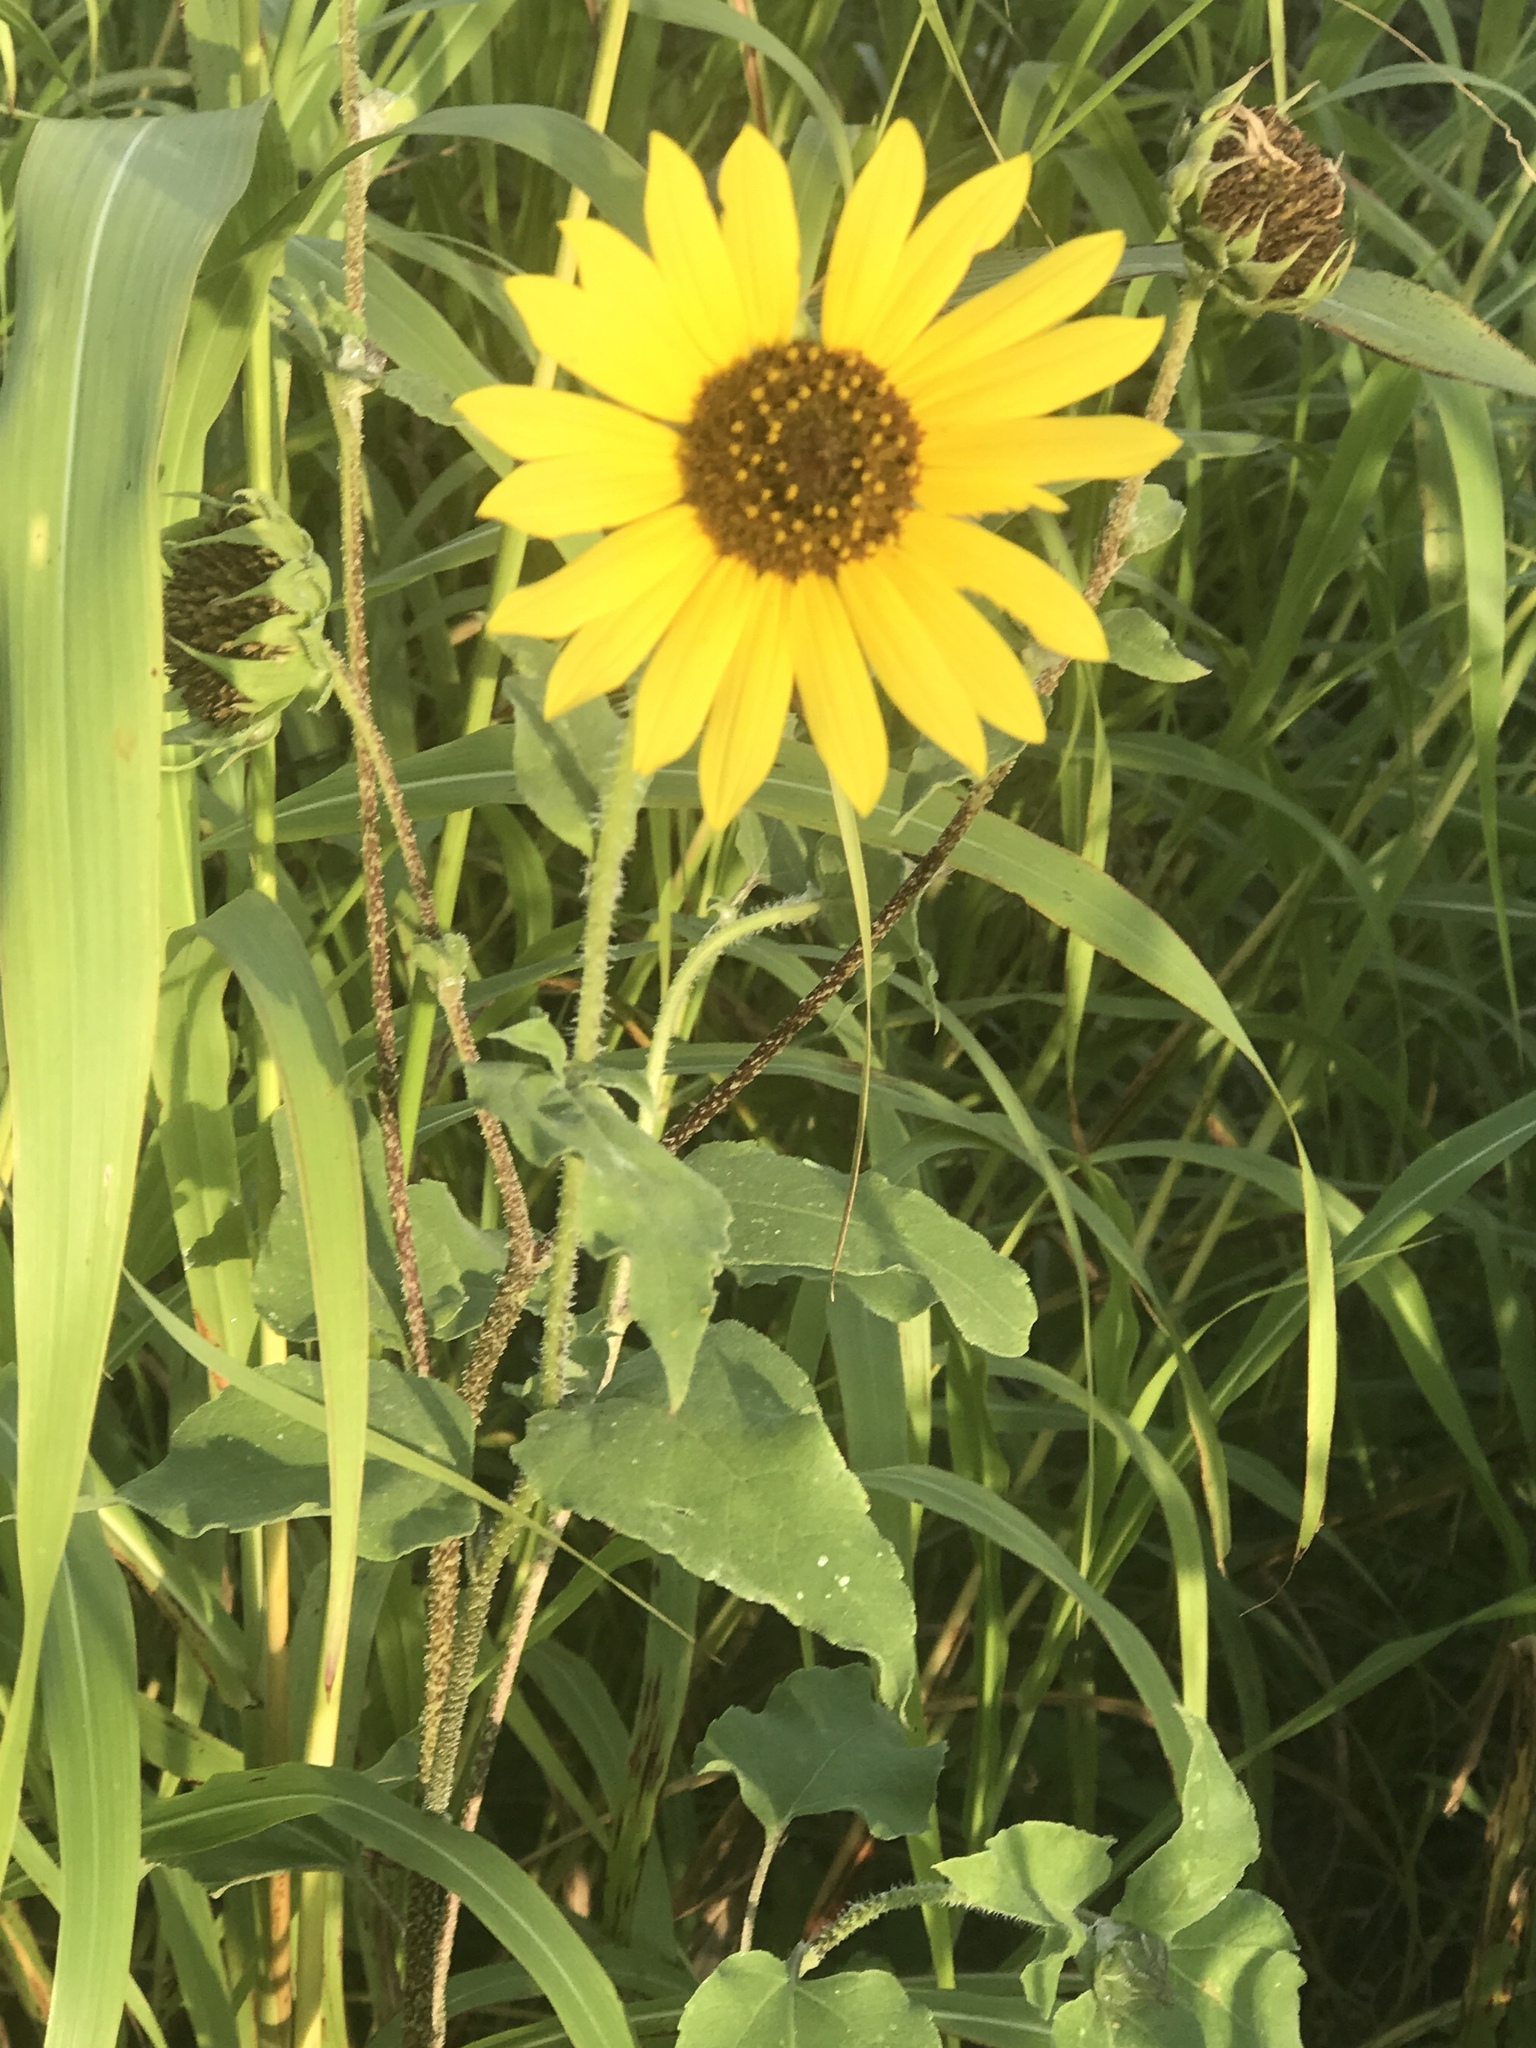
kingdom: Plantae
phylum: Tracheophyta
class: Magnoliopsida
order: Asterales
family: Asteraceae
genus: Helianthus
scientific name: Helianthus annuus
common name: Sunflower
